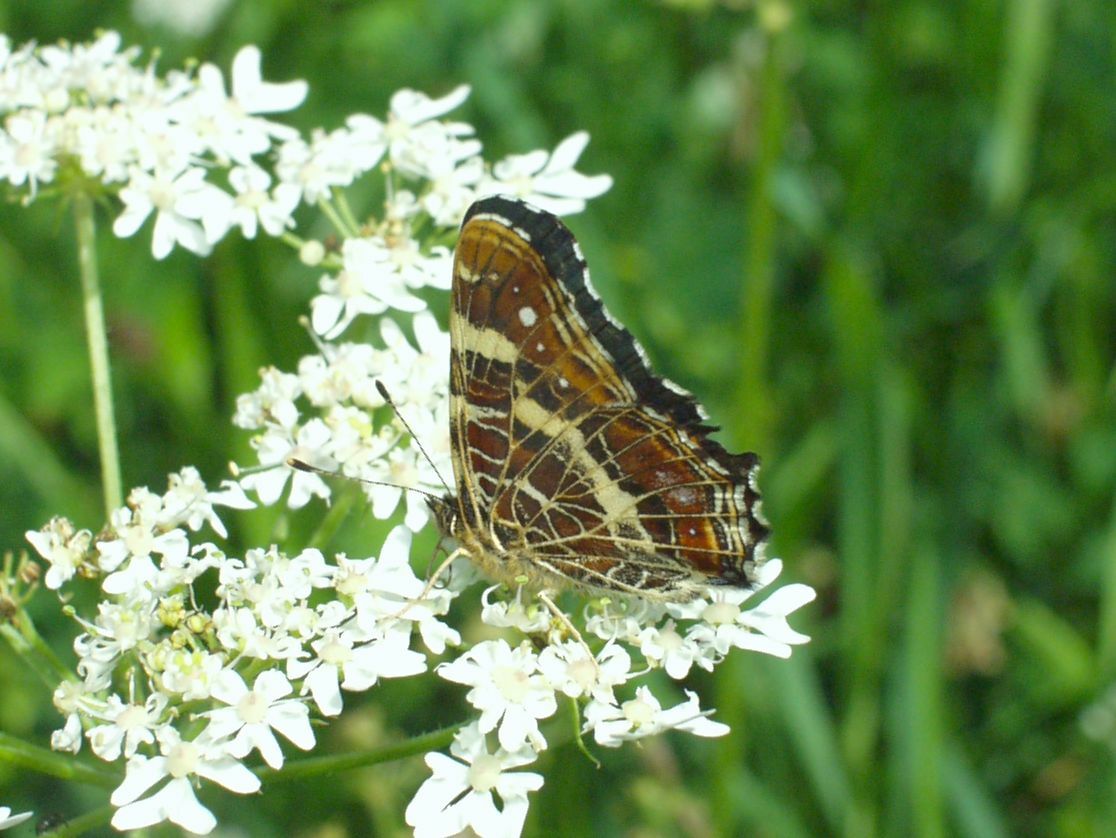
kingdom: Animalia
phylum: Arthropoda
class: Insecta
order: Lepidoptera
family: Nymphalidae
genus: Araschnia
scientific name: Araschnia levana
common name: Map butterfly
